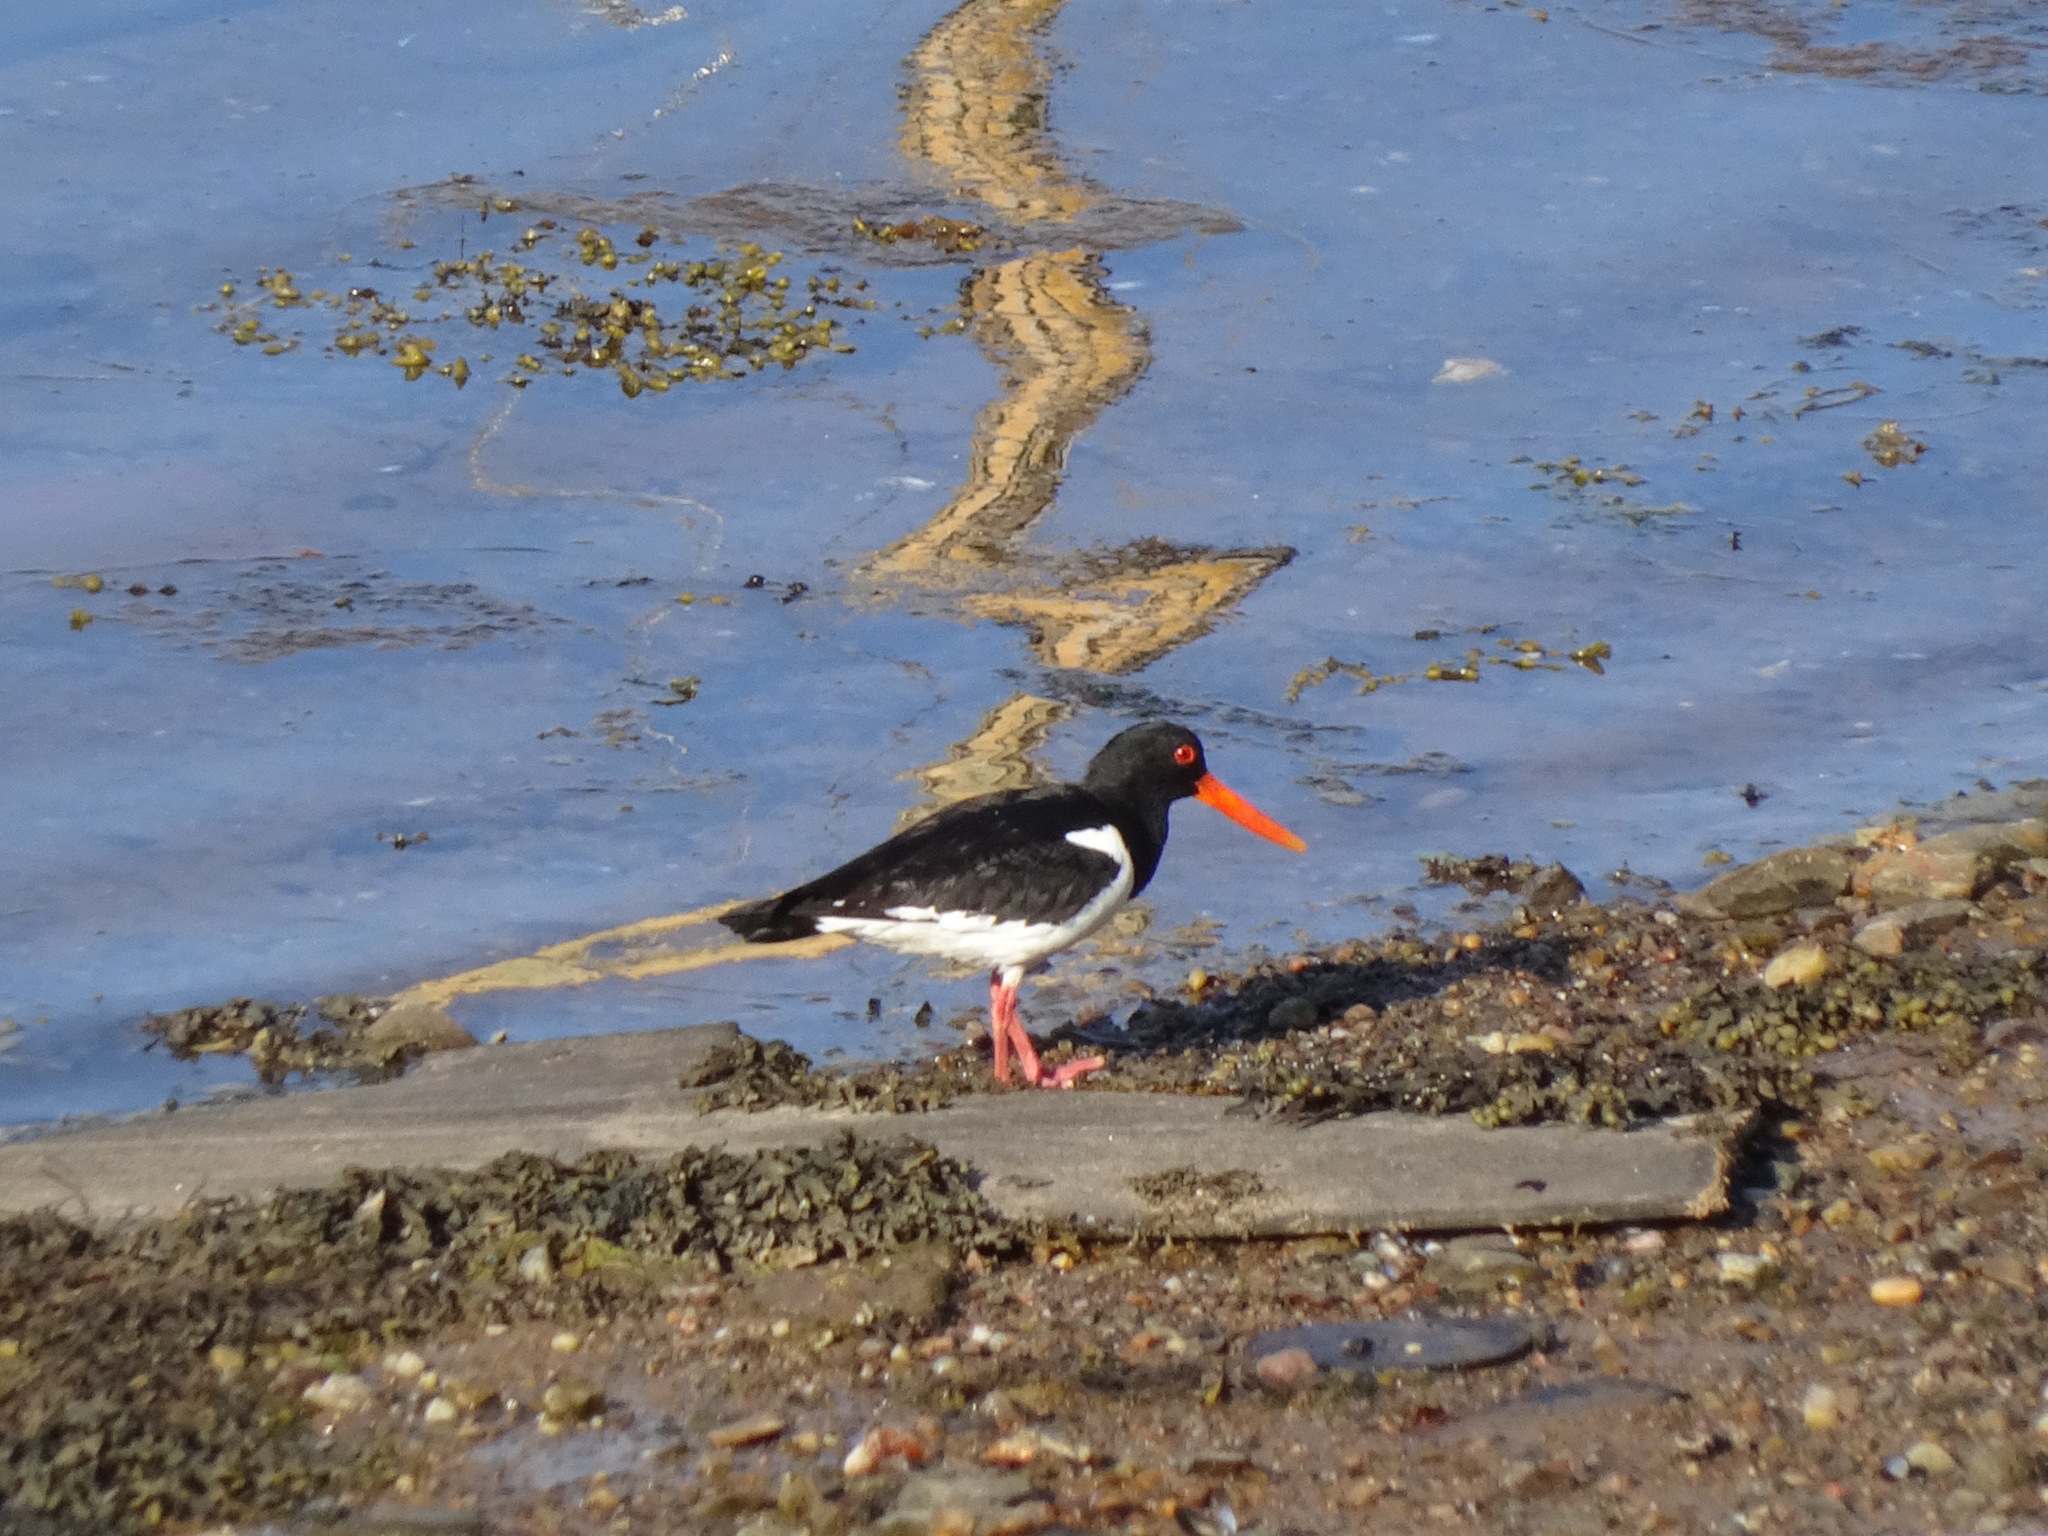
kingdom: Animalia
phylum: Chordata
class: Aves
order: Charadriiformes
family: Haematopodidae
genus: Haematopus
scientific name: Haematopus ostralegus
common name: Eurasian oystercatcher
